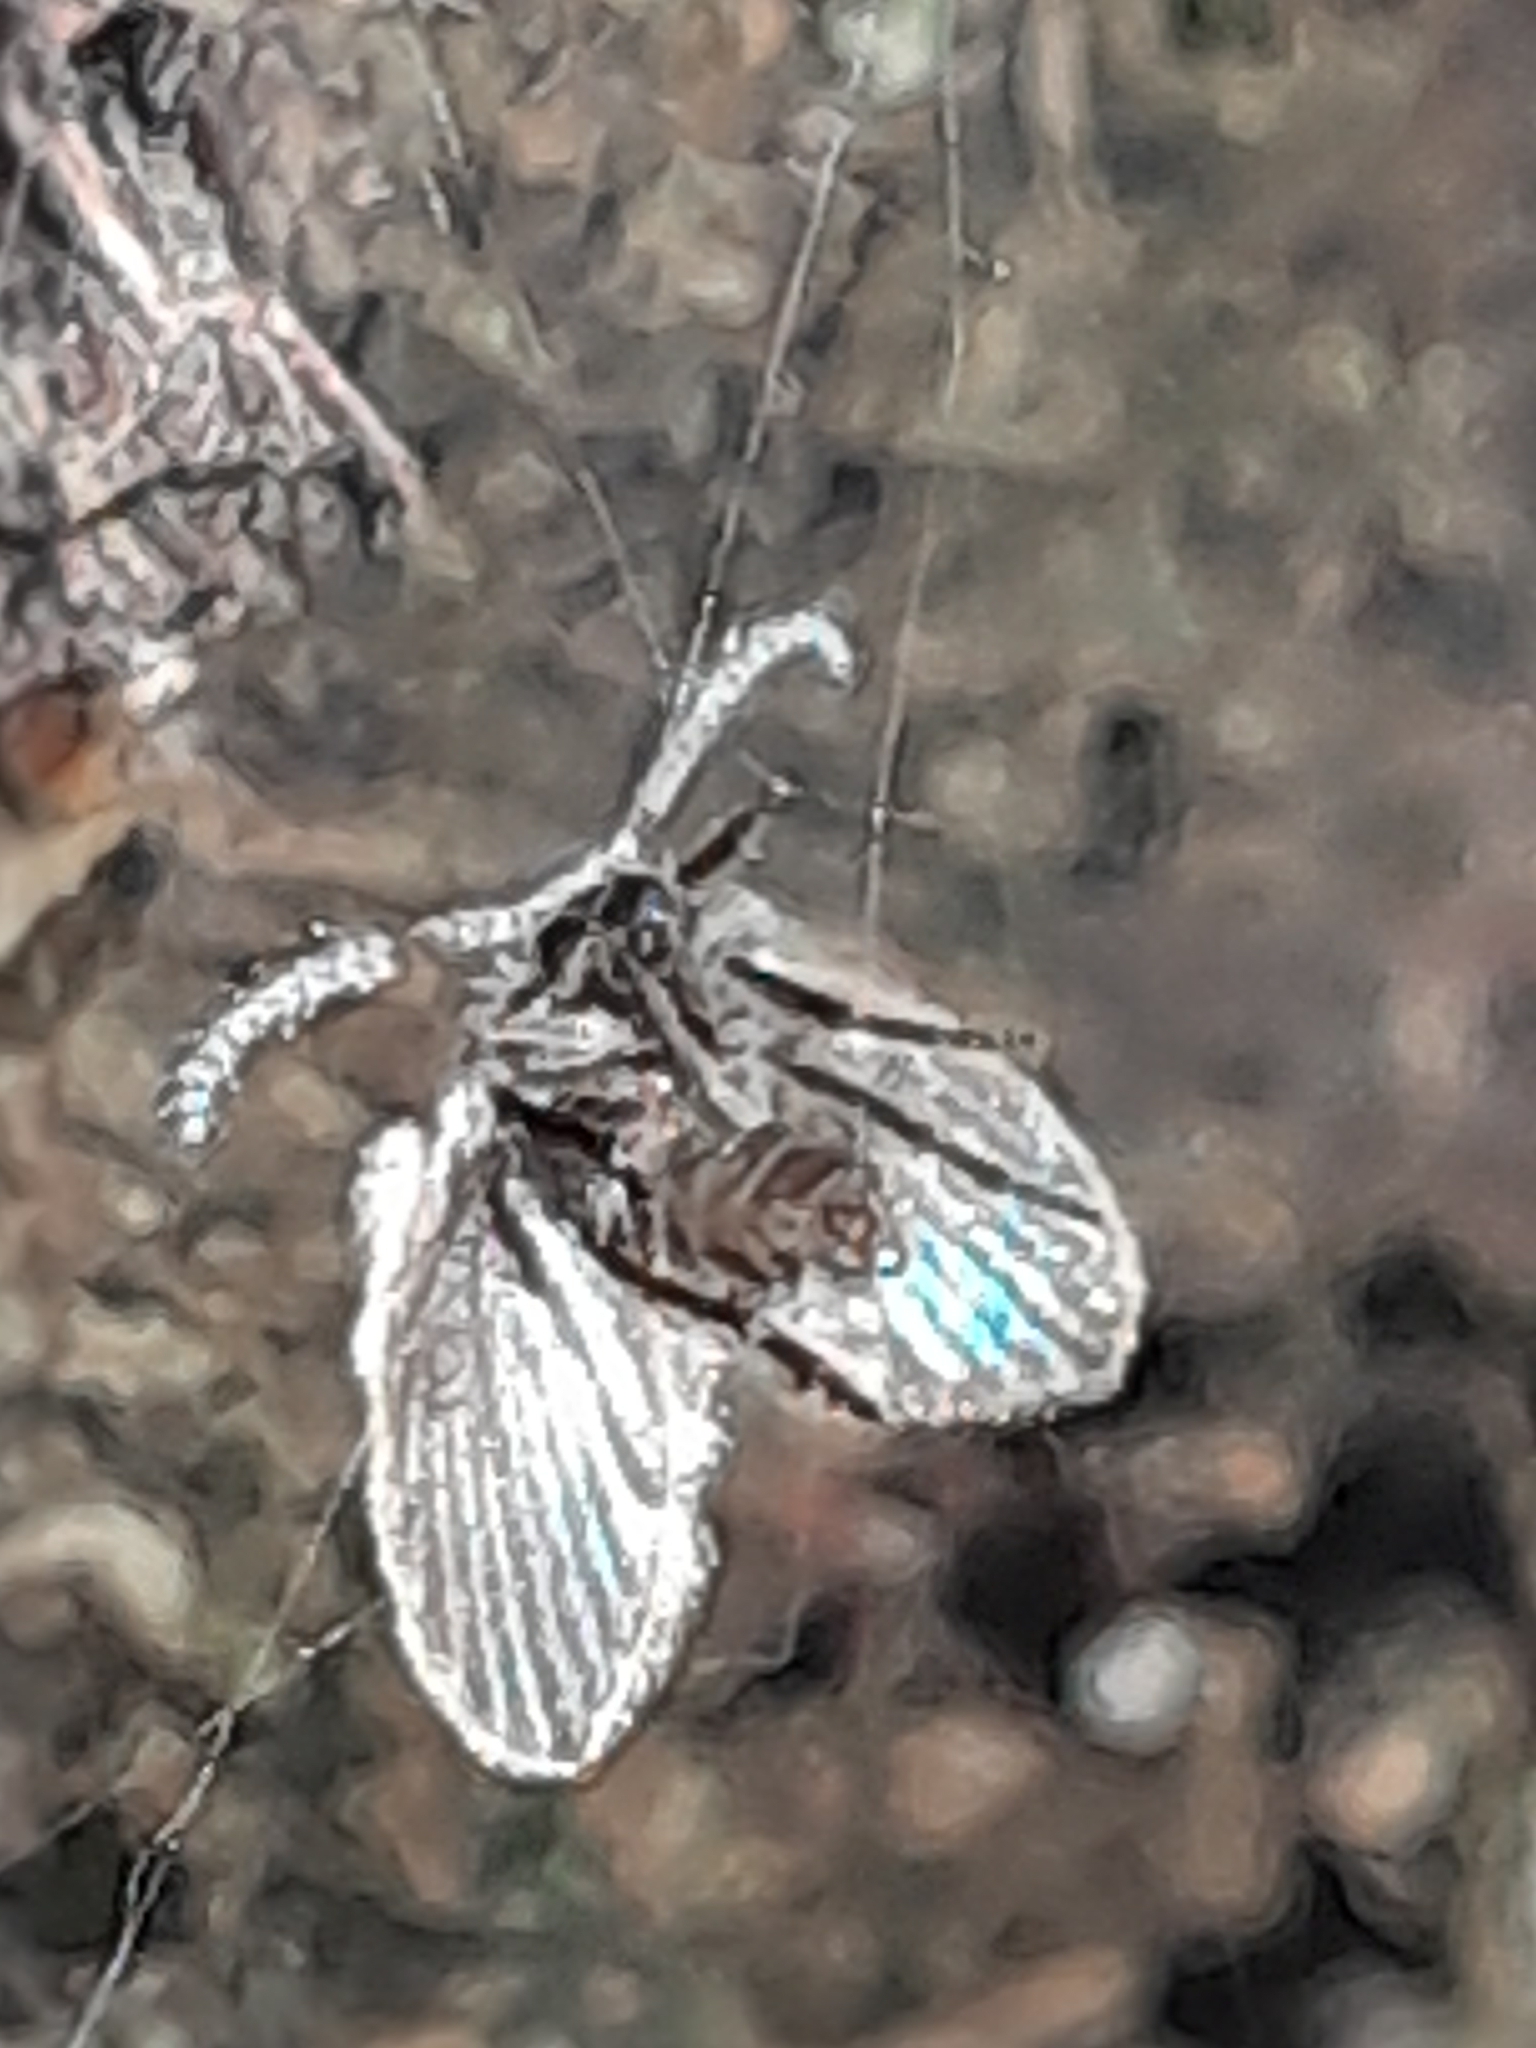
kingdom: Animalia
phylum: Arthropoda
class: Insecta
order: Diptera
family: Psychodidae
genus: Clogmia
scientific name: Clogmia albipunctatus
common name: White-spotted moth fly
